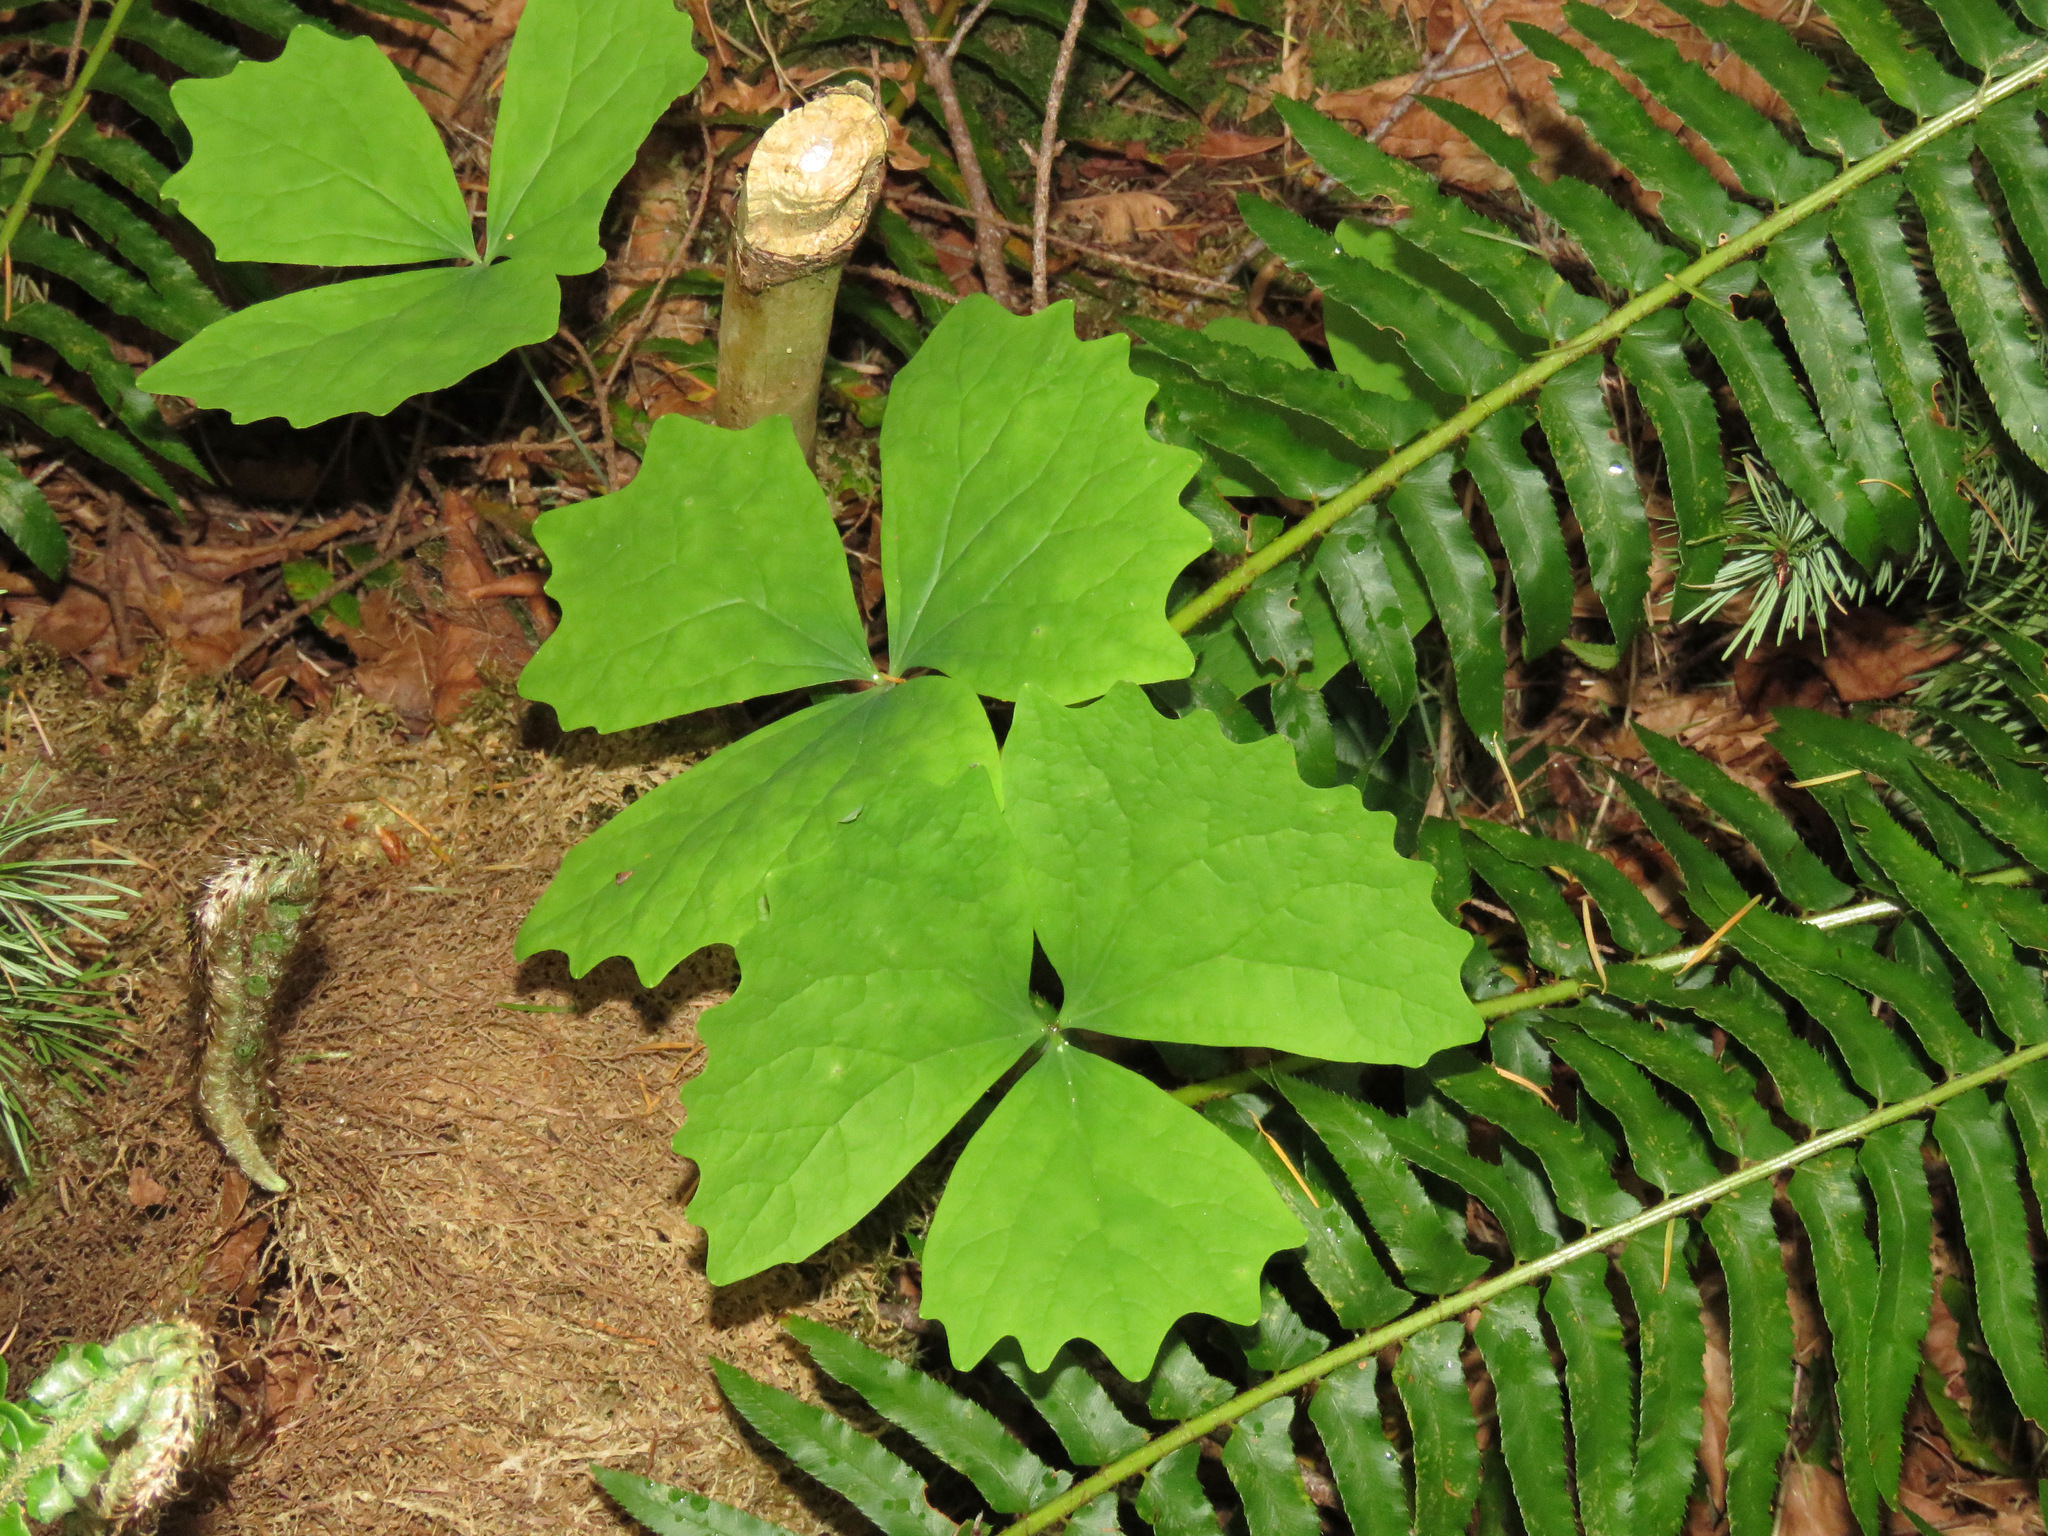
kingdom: Plantae
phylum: Tracheophyta
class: Magnoliopsida
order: Ranunculales
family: Berberidaceae
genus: Achlys
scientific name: Achlys triphylla
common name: Vanilla-leaf
